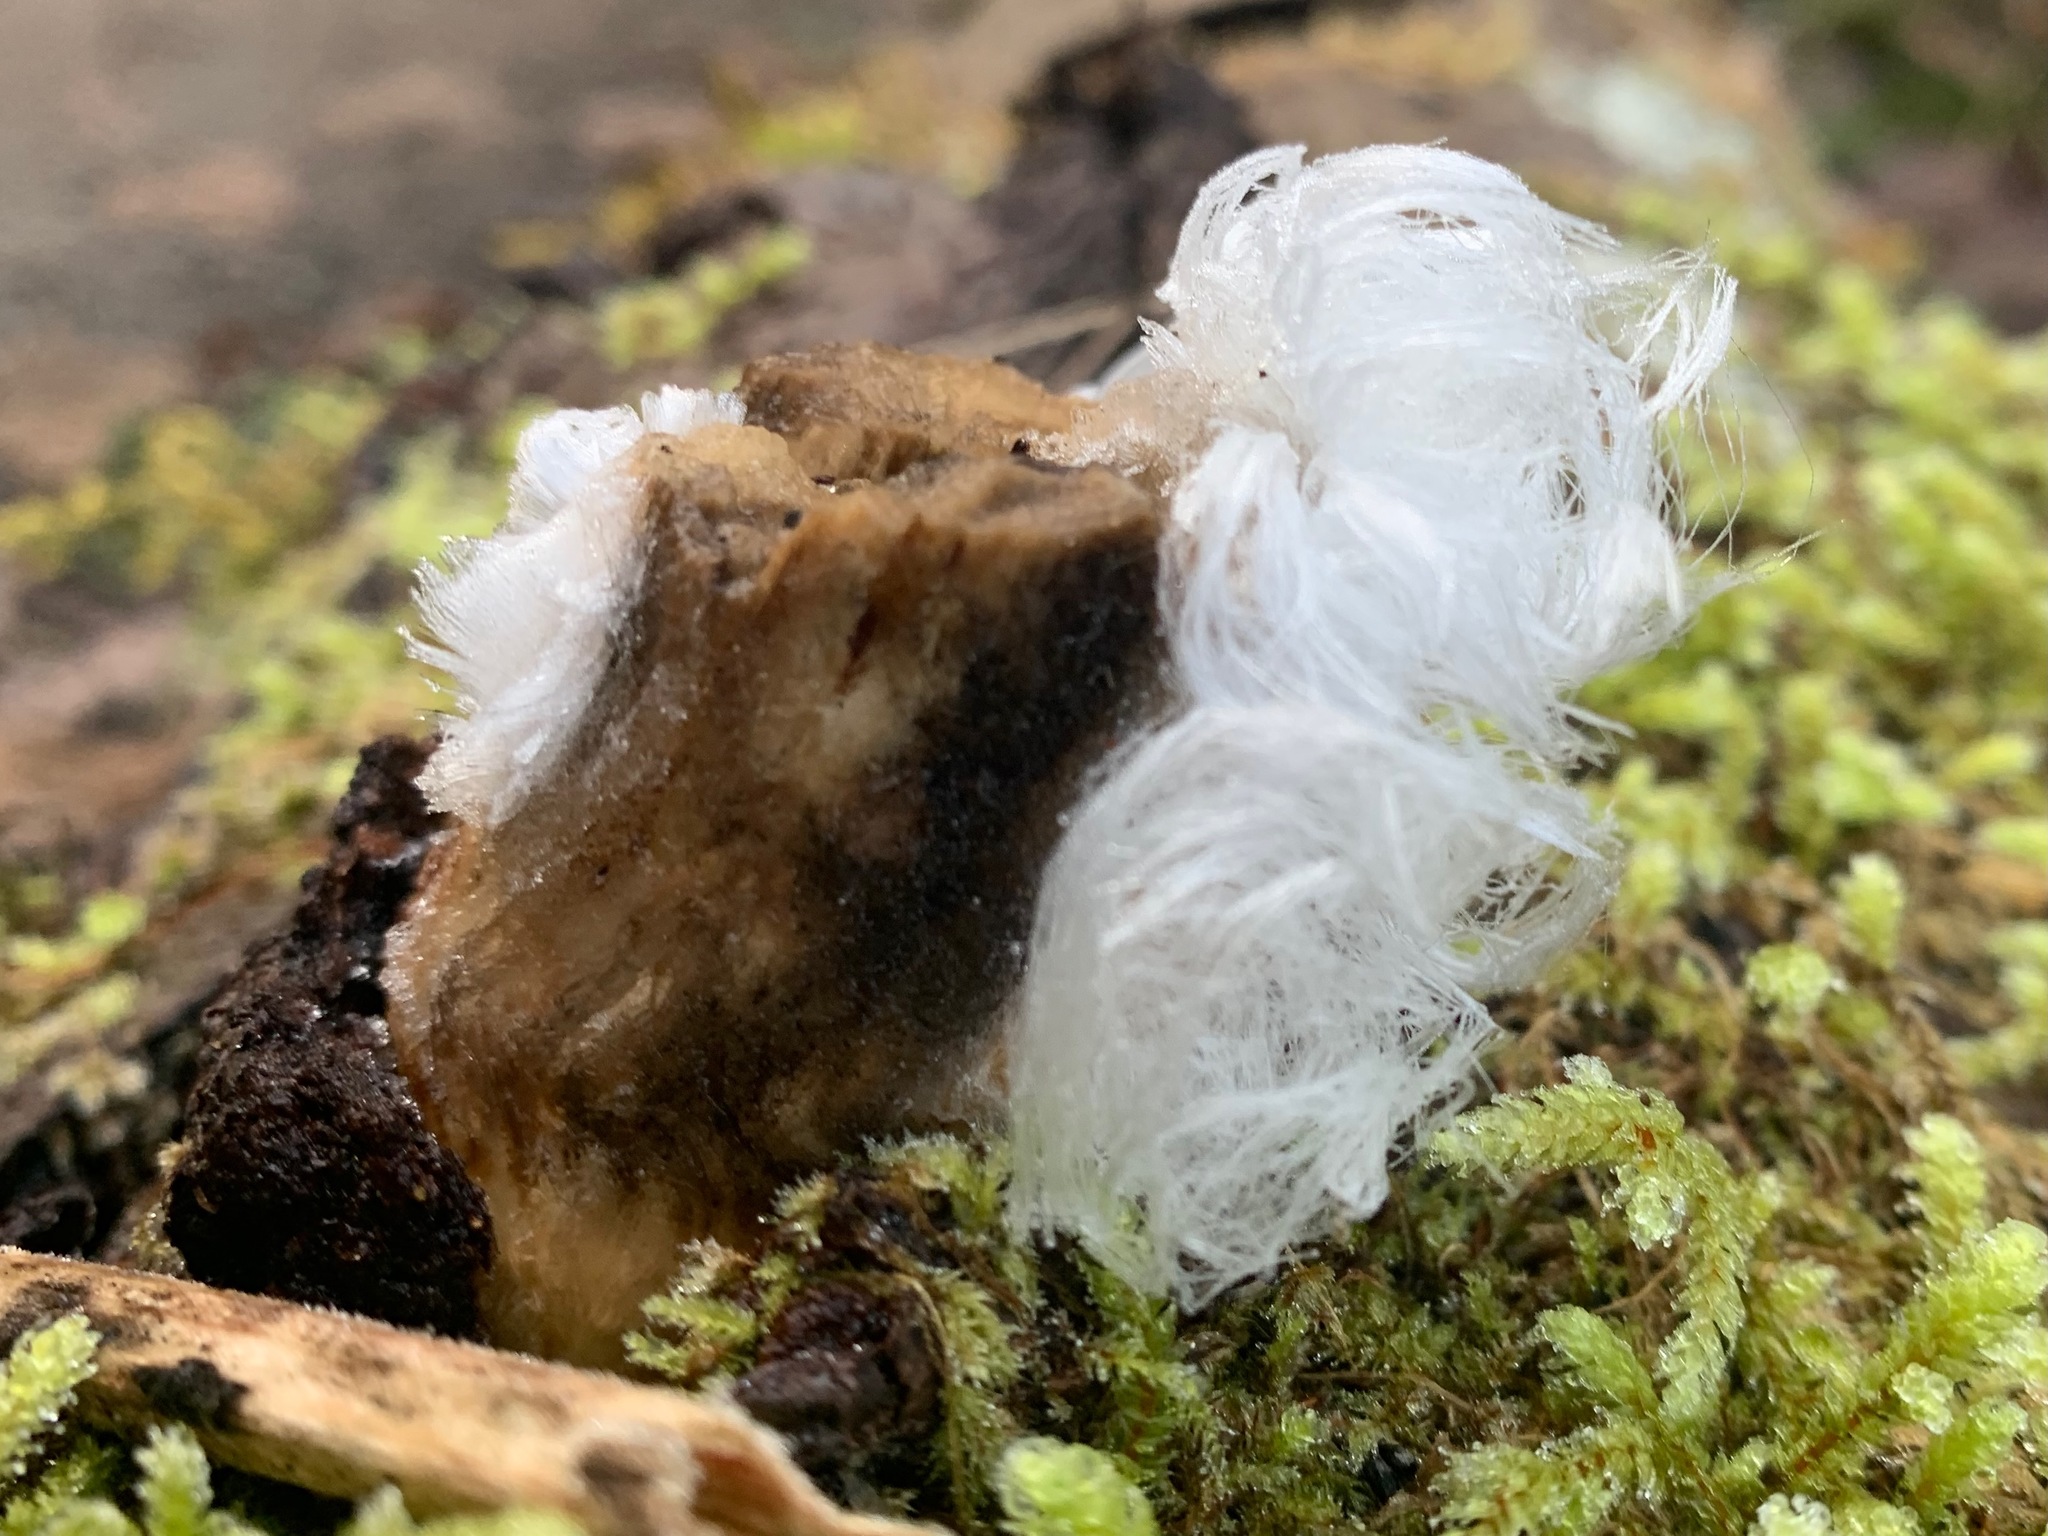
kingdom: Fungi
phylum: Basidiomycota
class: Agaricomycetes
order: Auriculariales
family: Auriculariaceae
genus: Exidiopsis
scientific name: Exidiopsis effusa
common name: Hair ice crust
